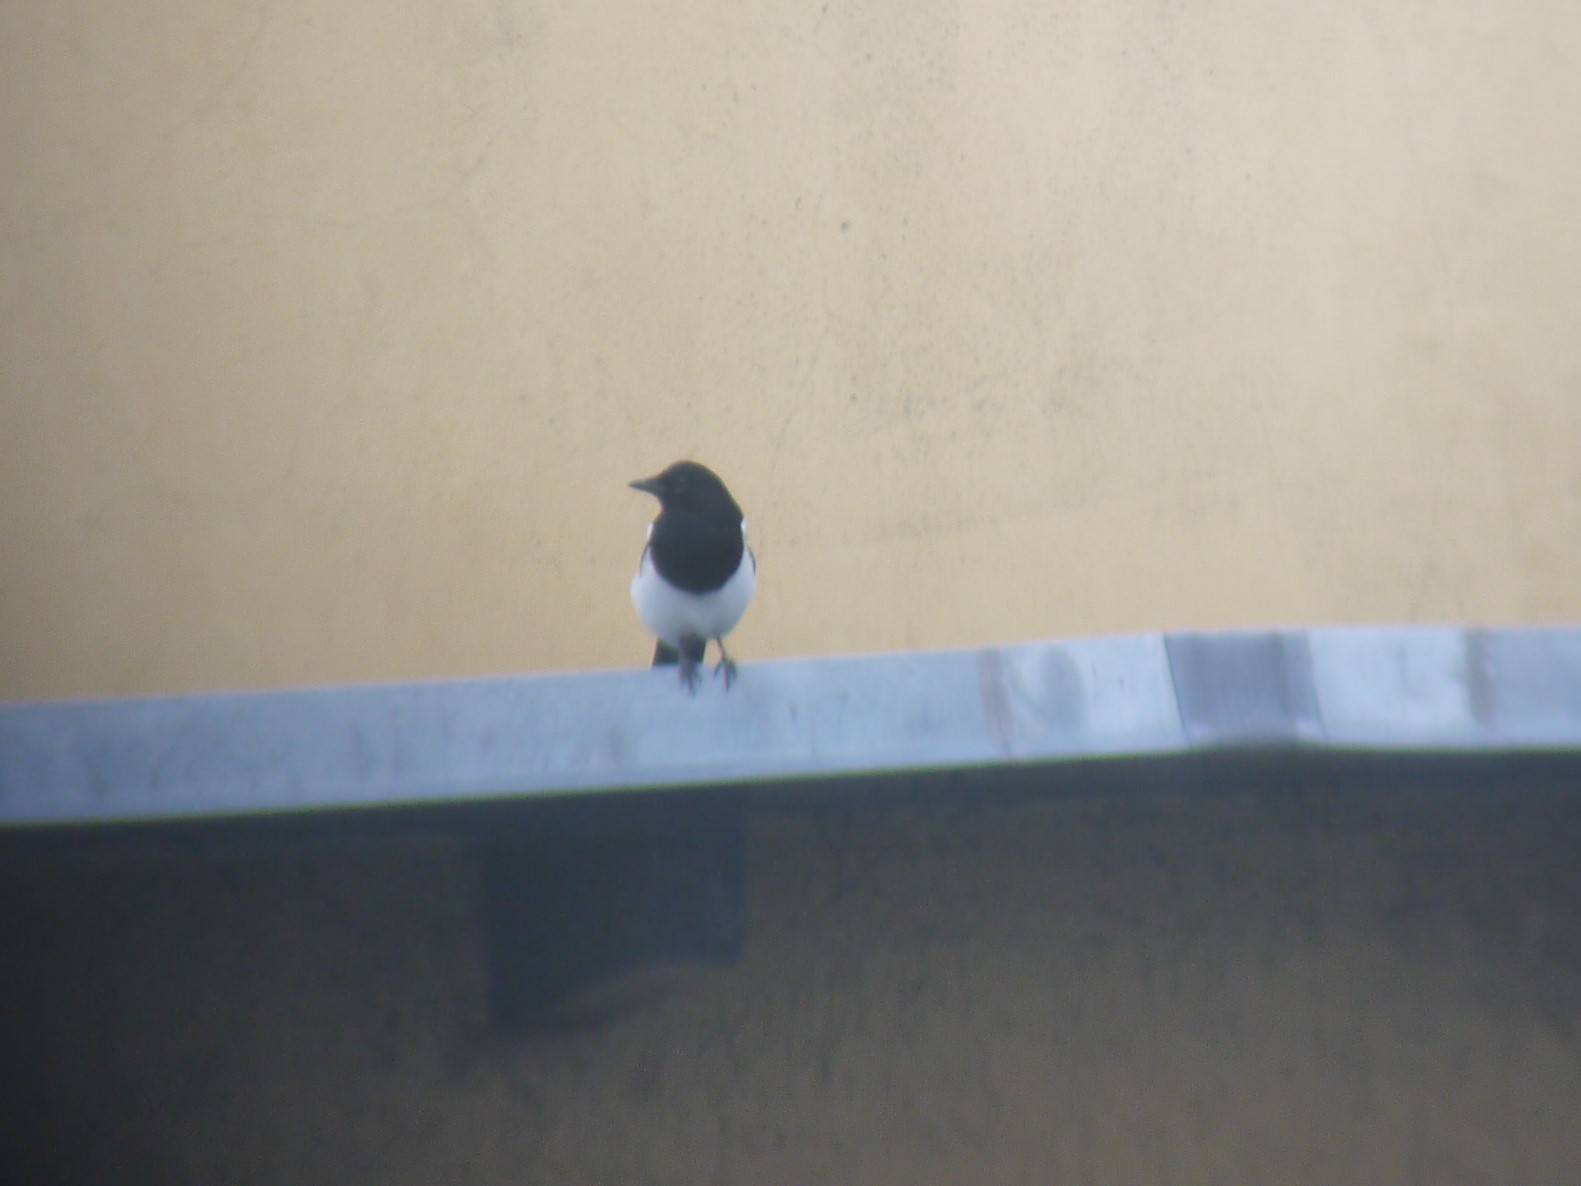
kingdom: Animalia
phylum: Chordata
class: Aves
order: Passeriformes
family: Corvidae
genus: Pica
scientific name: Pica pica
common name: Eurasian magpie
